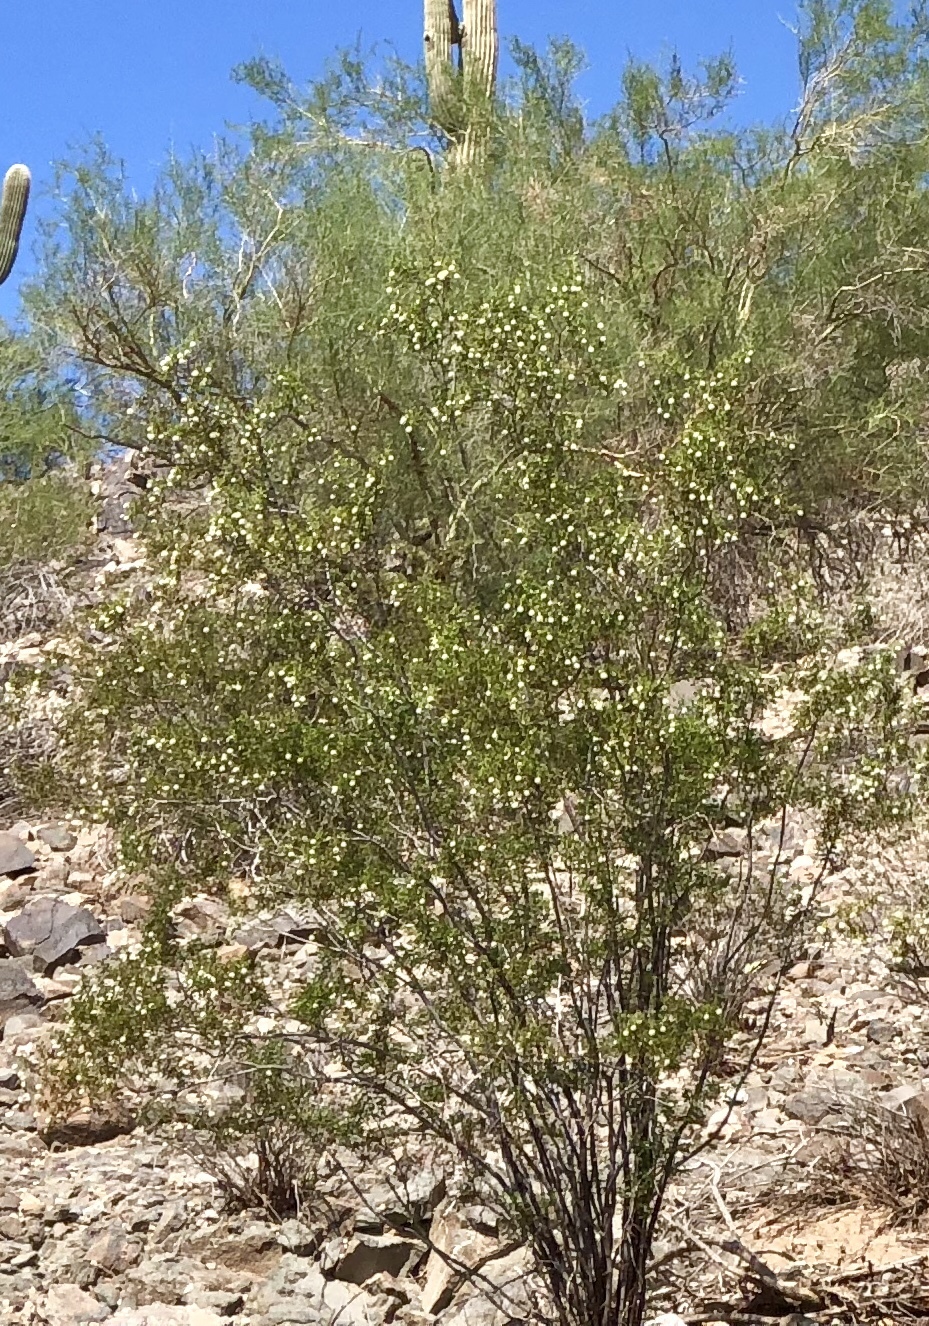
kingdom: Plantae
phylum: Tracheophyta
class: Magnoliopsida
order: Zygophyllales
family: Zygophyllaceae
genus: Larrea
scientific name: Larrea tridentata
